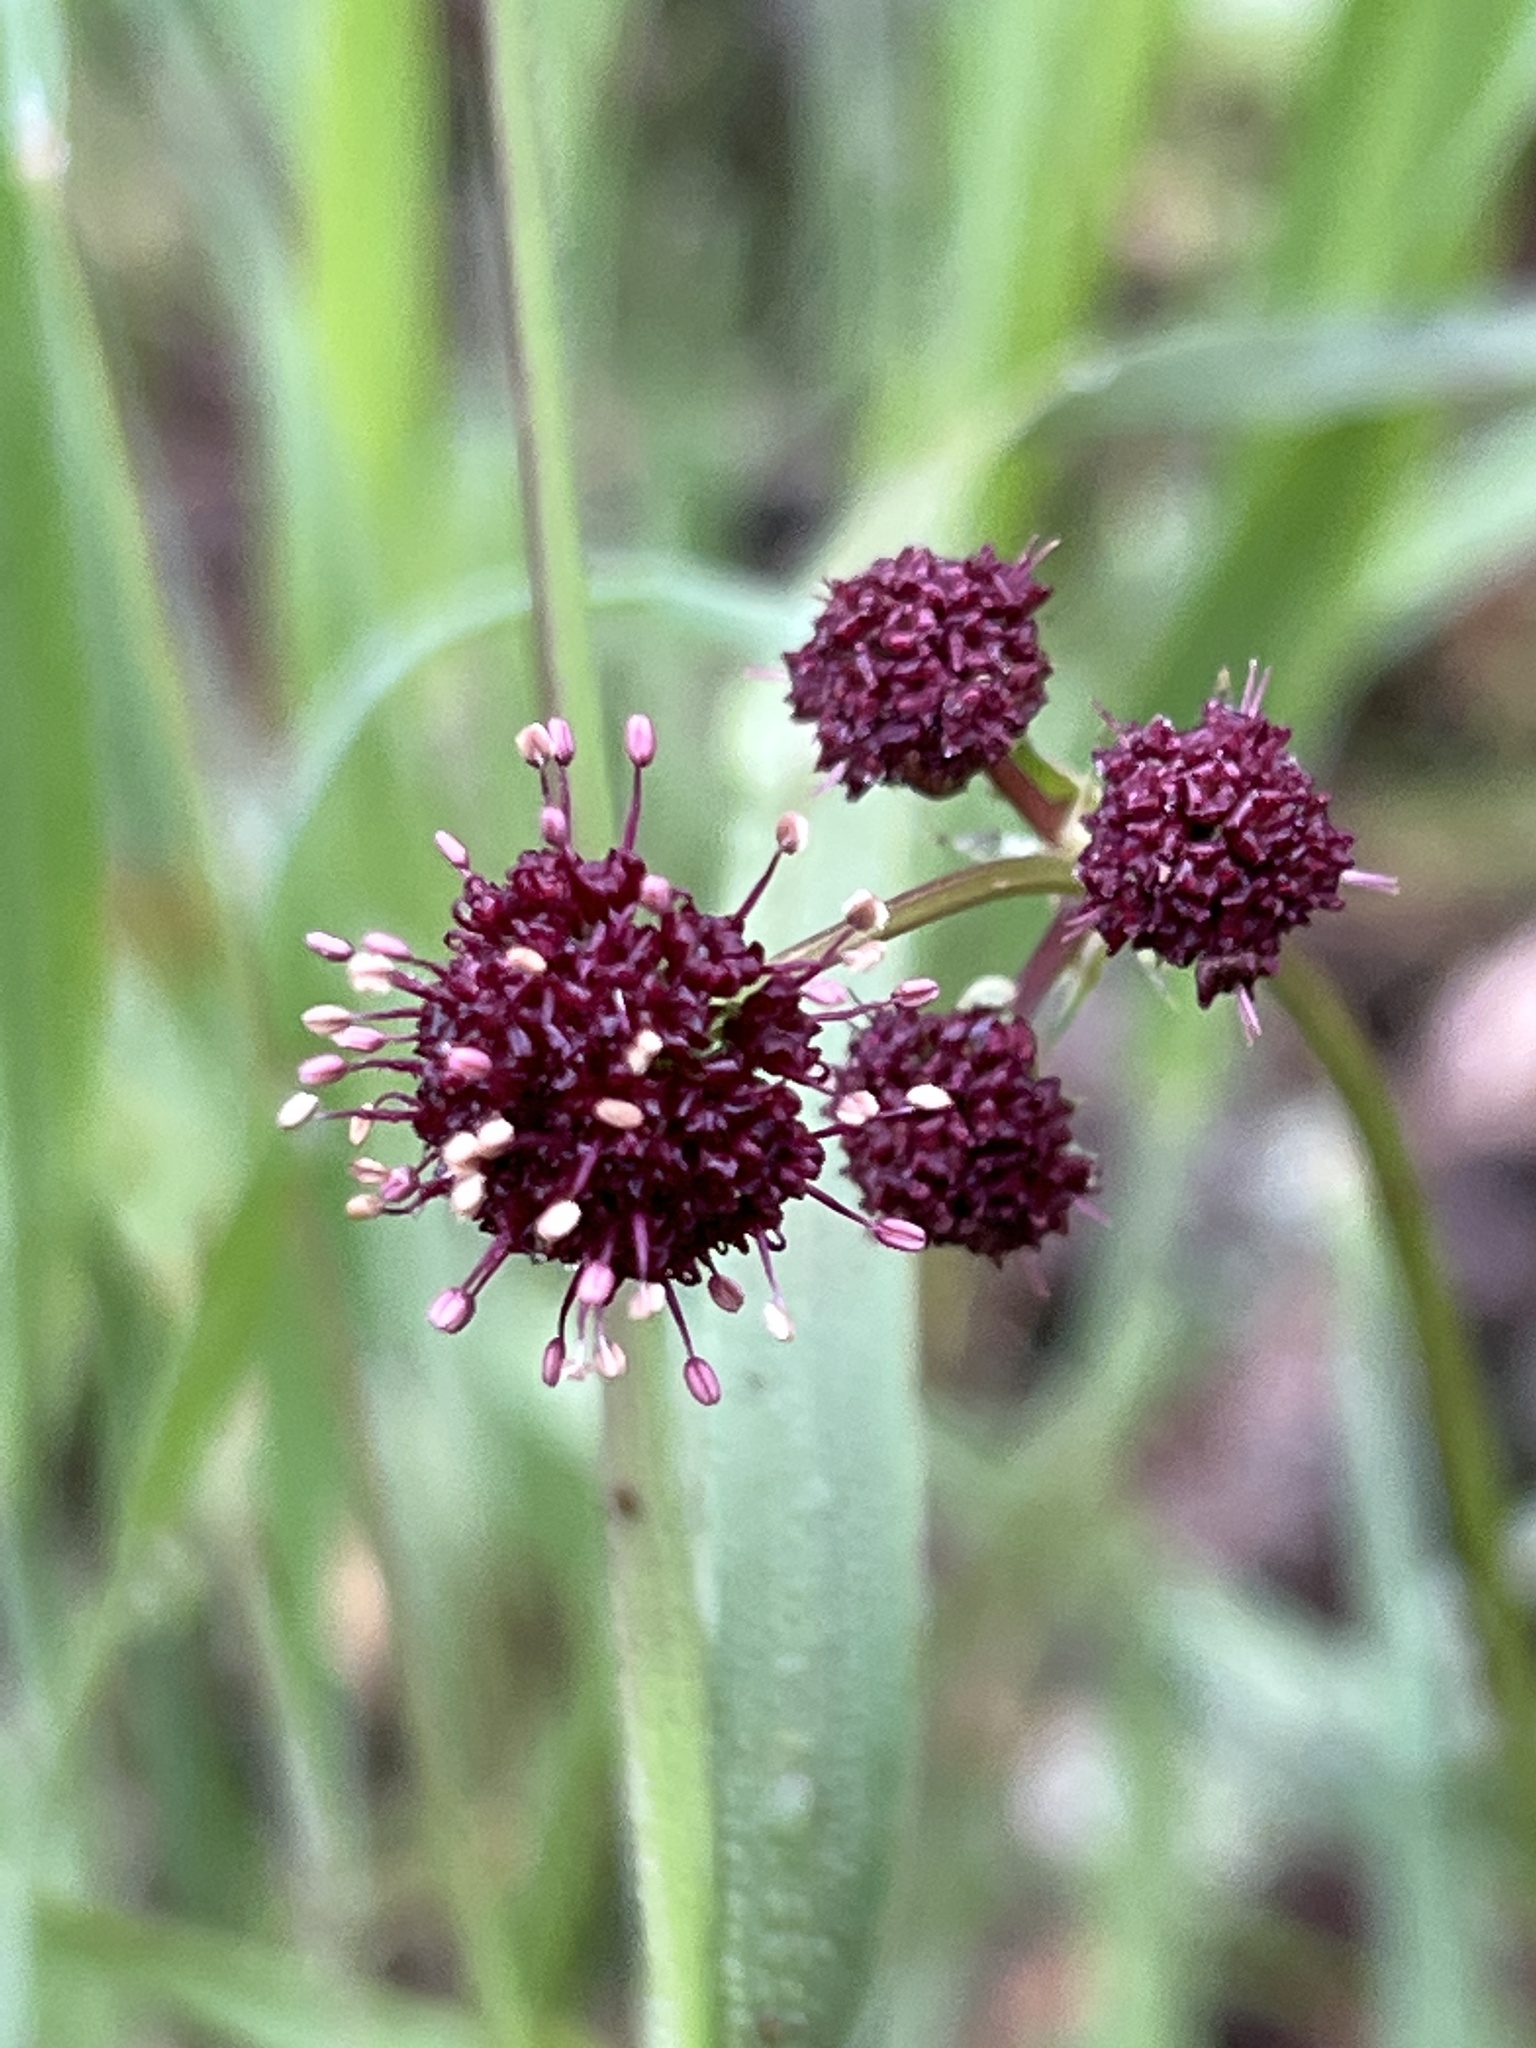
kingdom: Plantae
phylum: Tracheophyta
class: Magnoliopsida
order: Apiales
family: Apiaceae
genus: Sanicula
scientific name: Sanicula bipinnatifida
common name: Shoe-buttons
